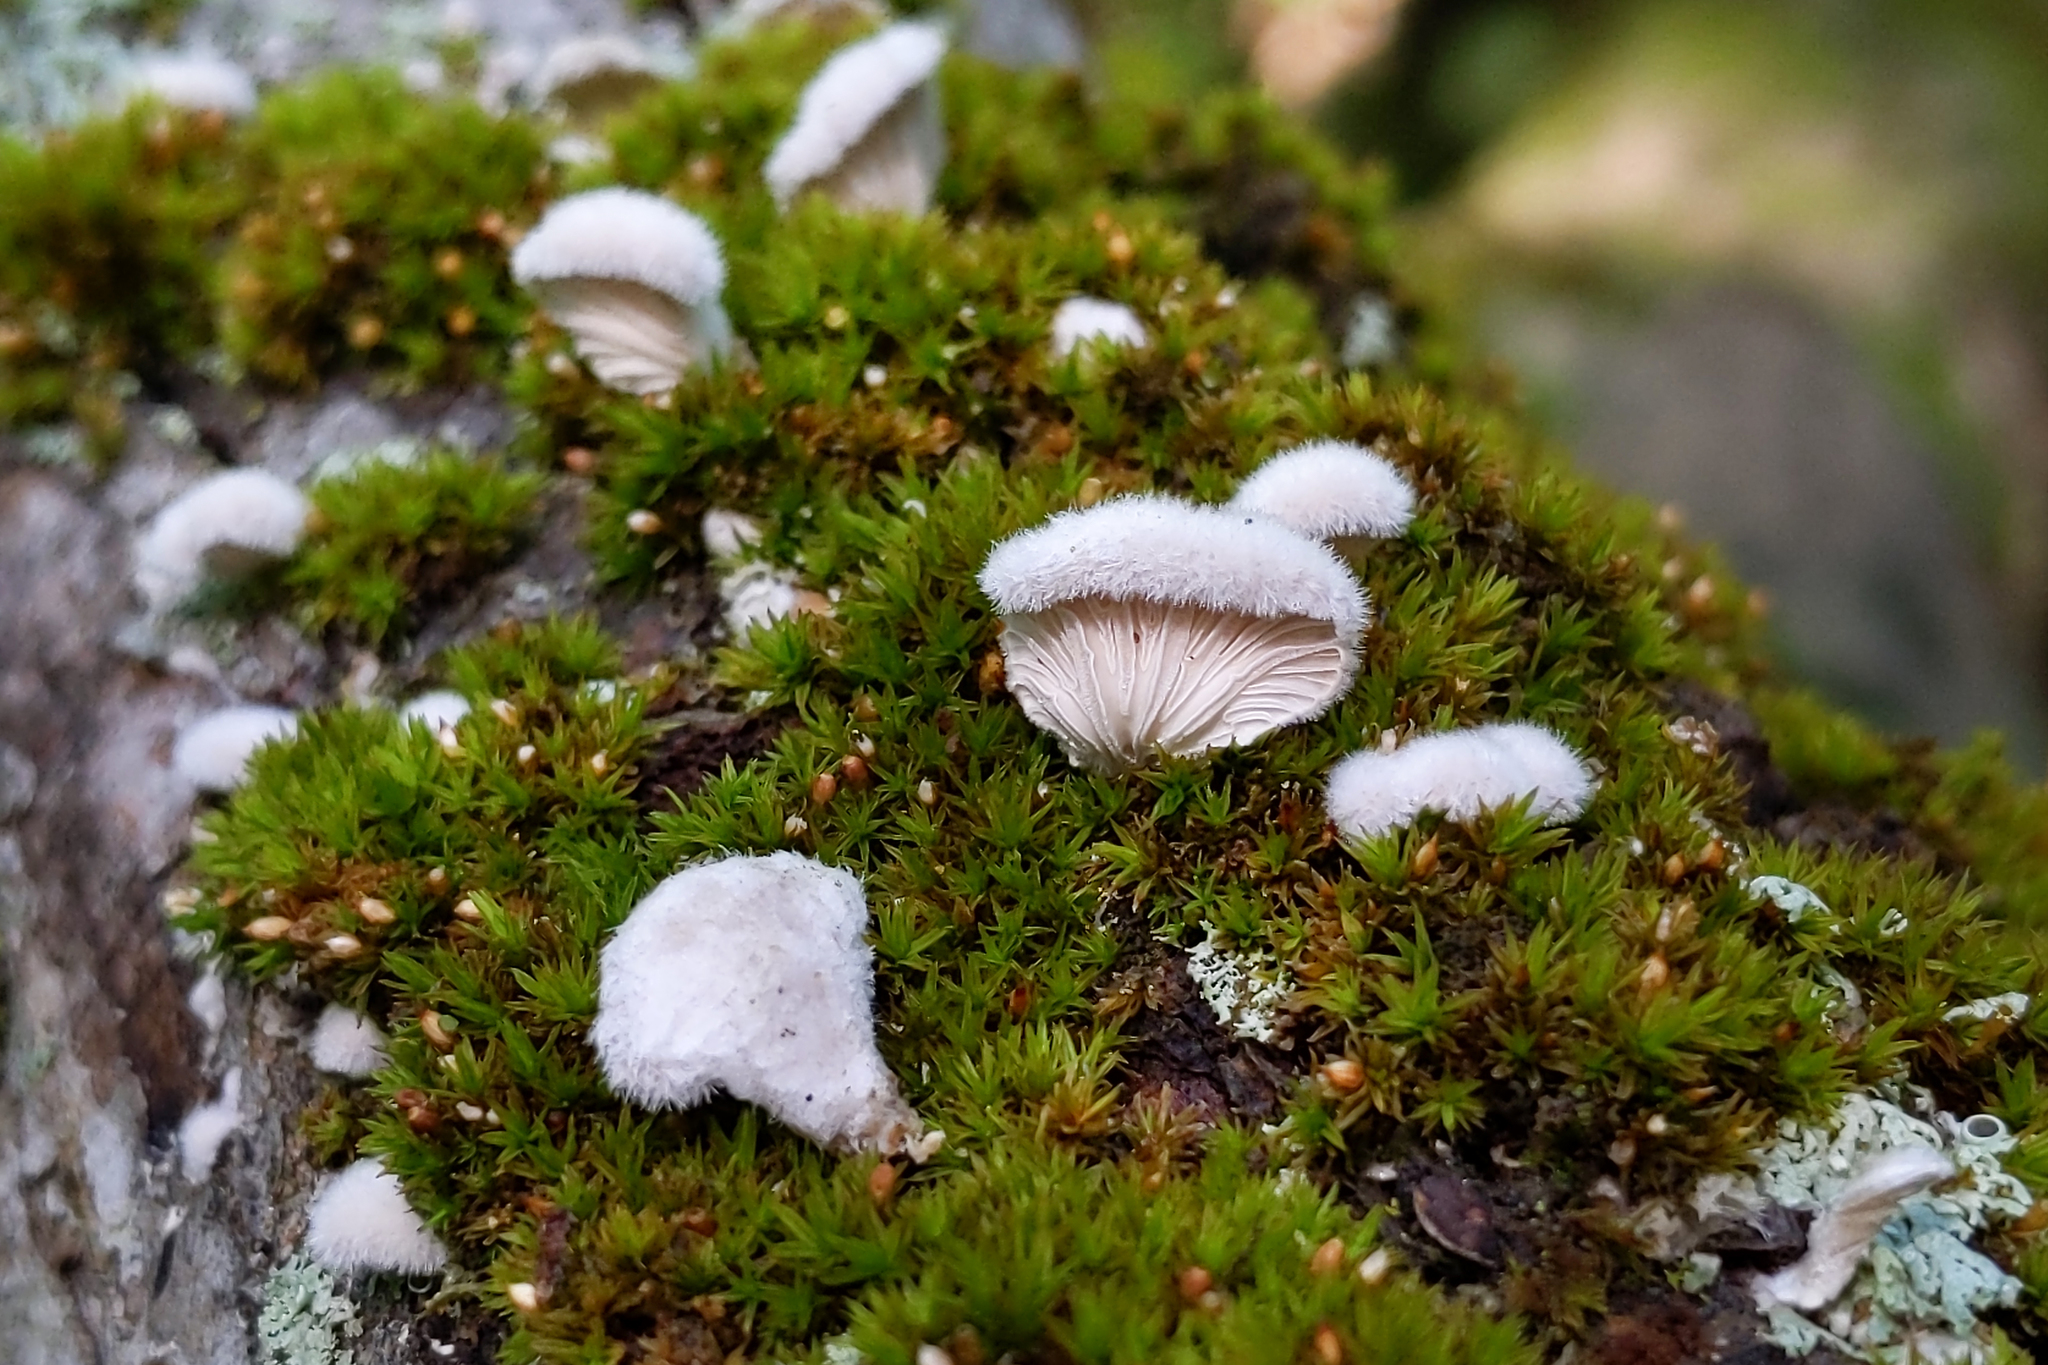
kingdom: Fungi
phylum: Basidiomycota
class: Agaricomycetes
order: Agaricales
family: Schizophyllaceae
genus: Schizophyllum
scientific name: Schizophyllum commune
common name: Common porecrust
